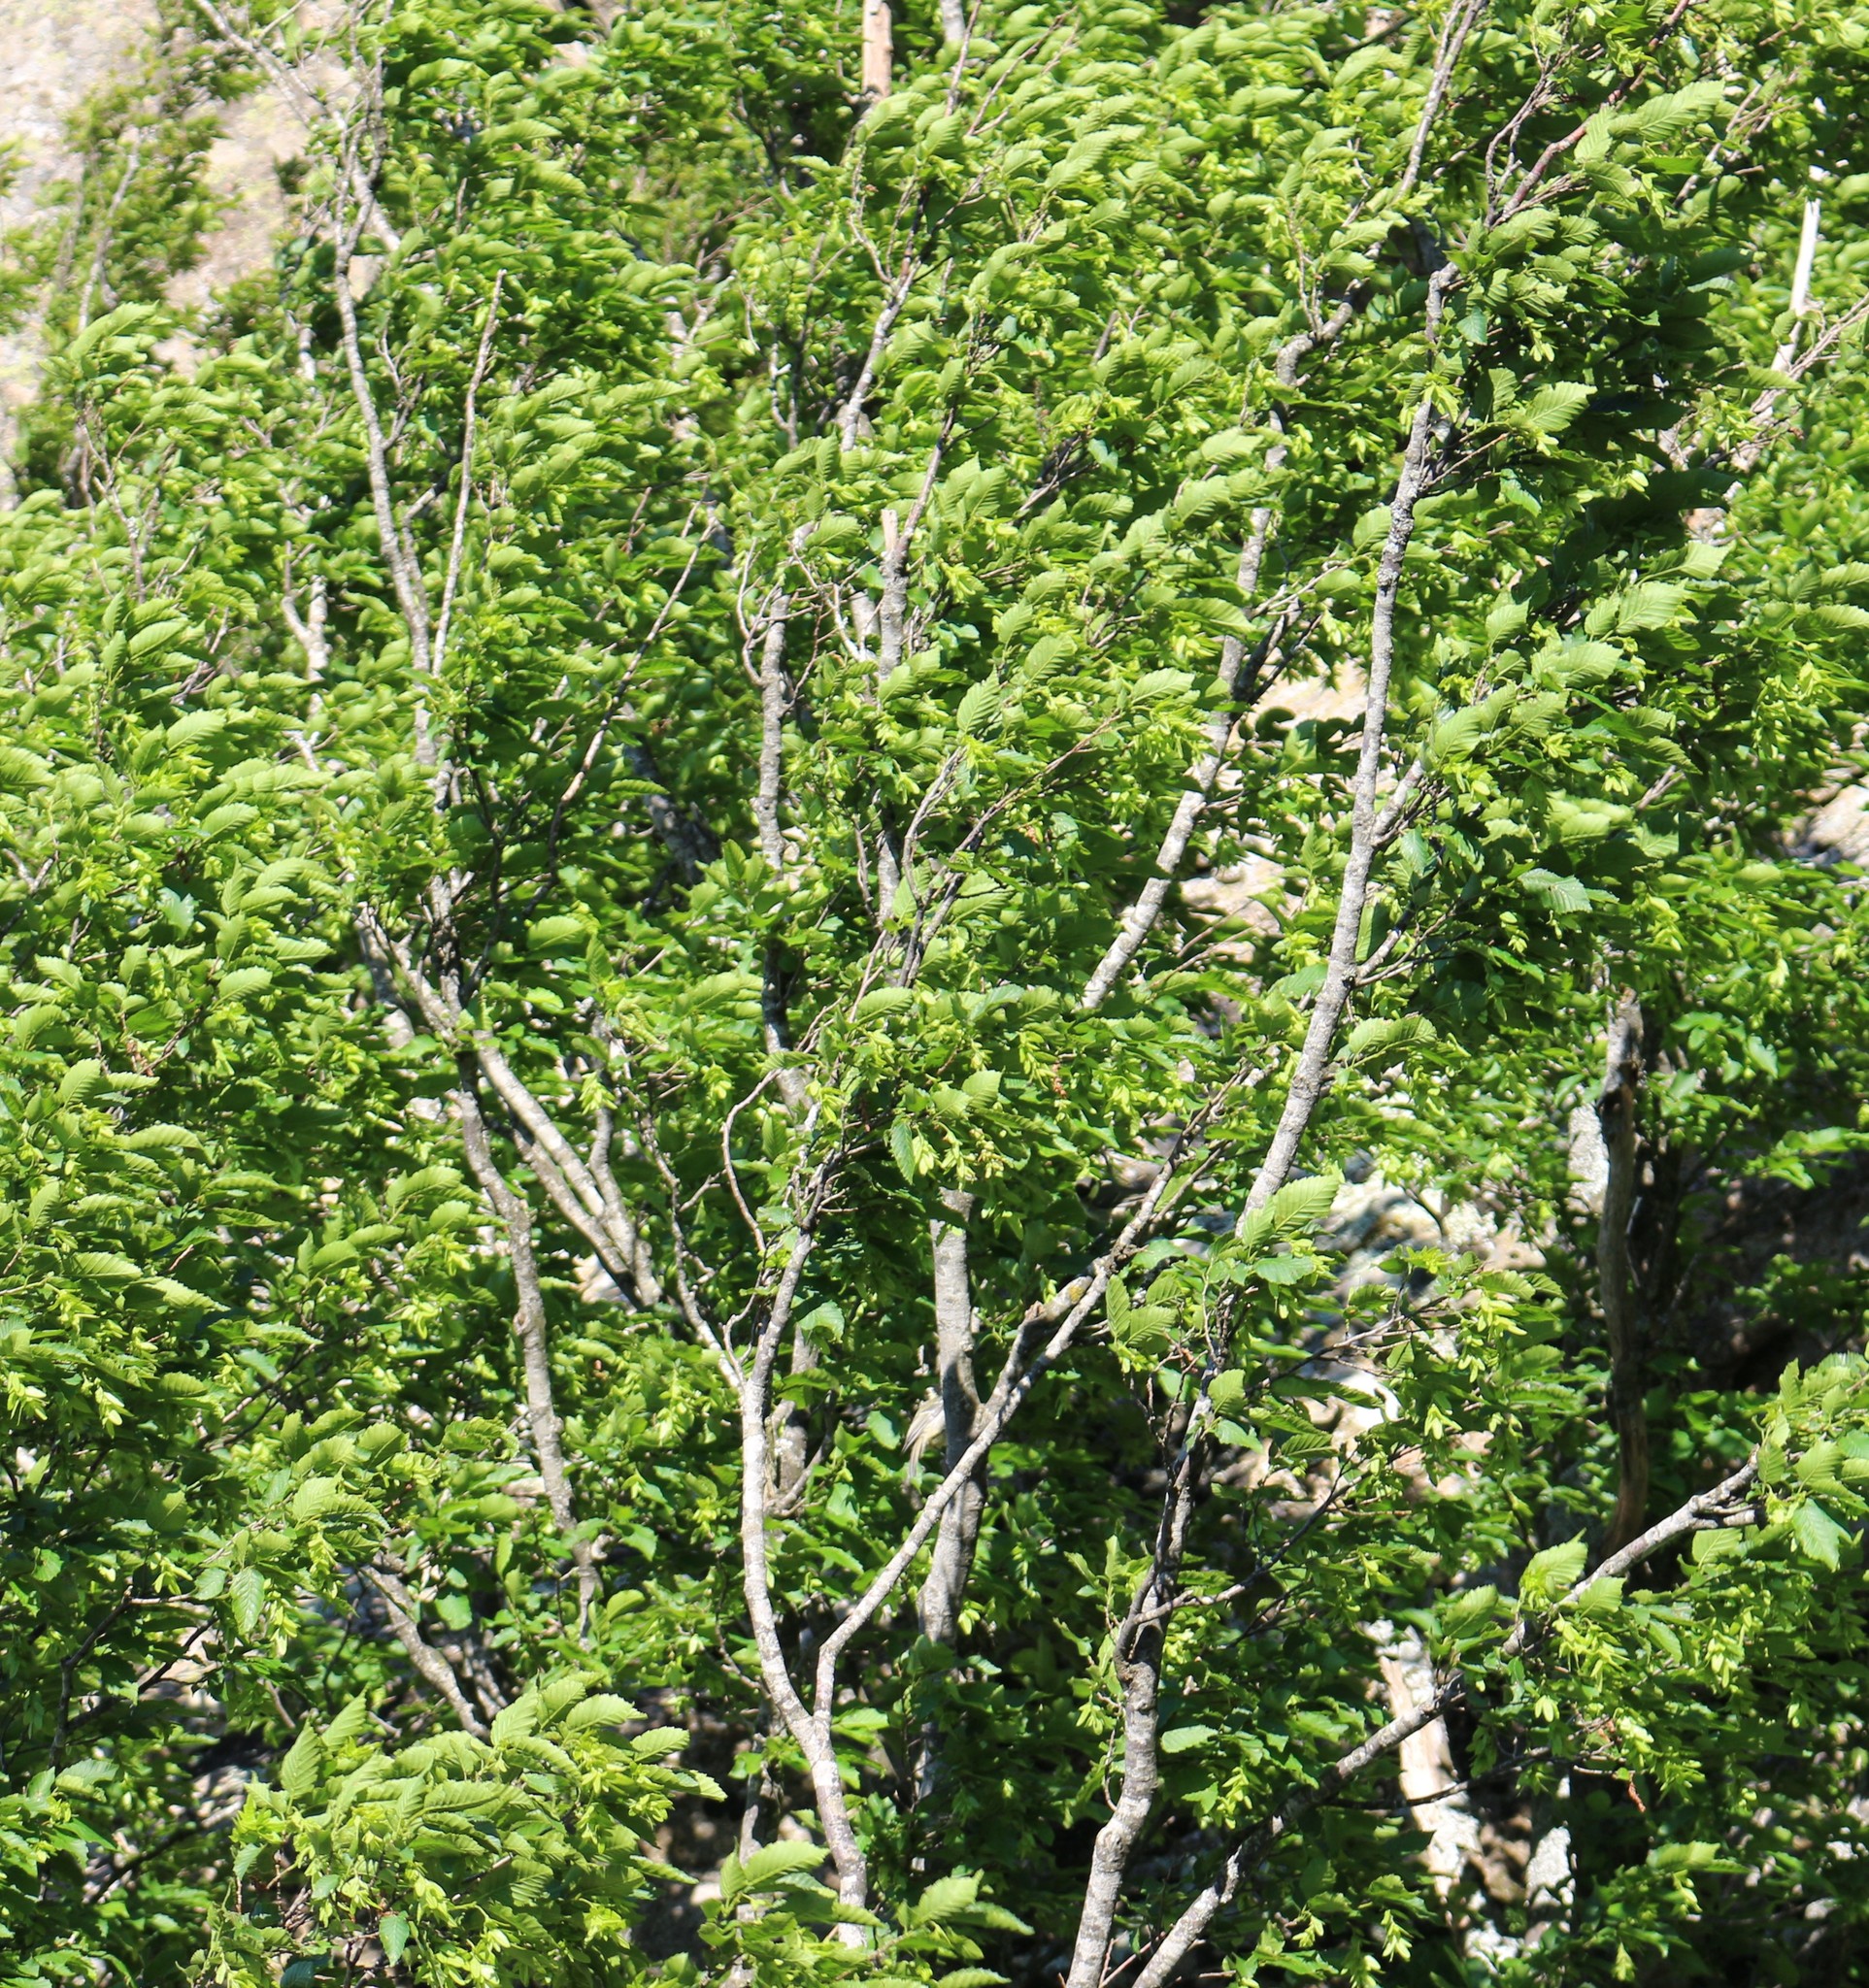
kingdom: Plantae
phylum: Tracheophyta
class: Magnoliopsida
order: Fagales
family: Betulaceae
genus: Carpinus
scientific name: Carpinus orientalis
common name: Eastern hornbeam
